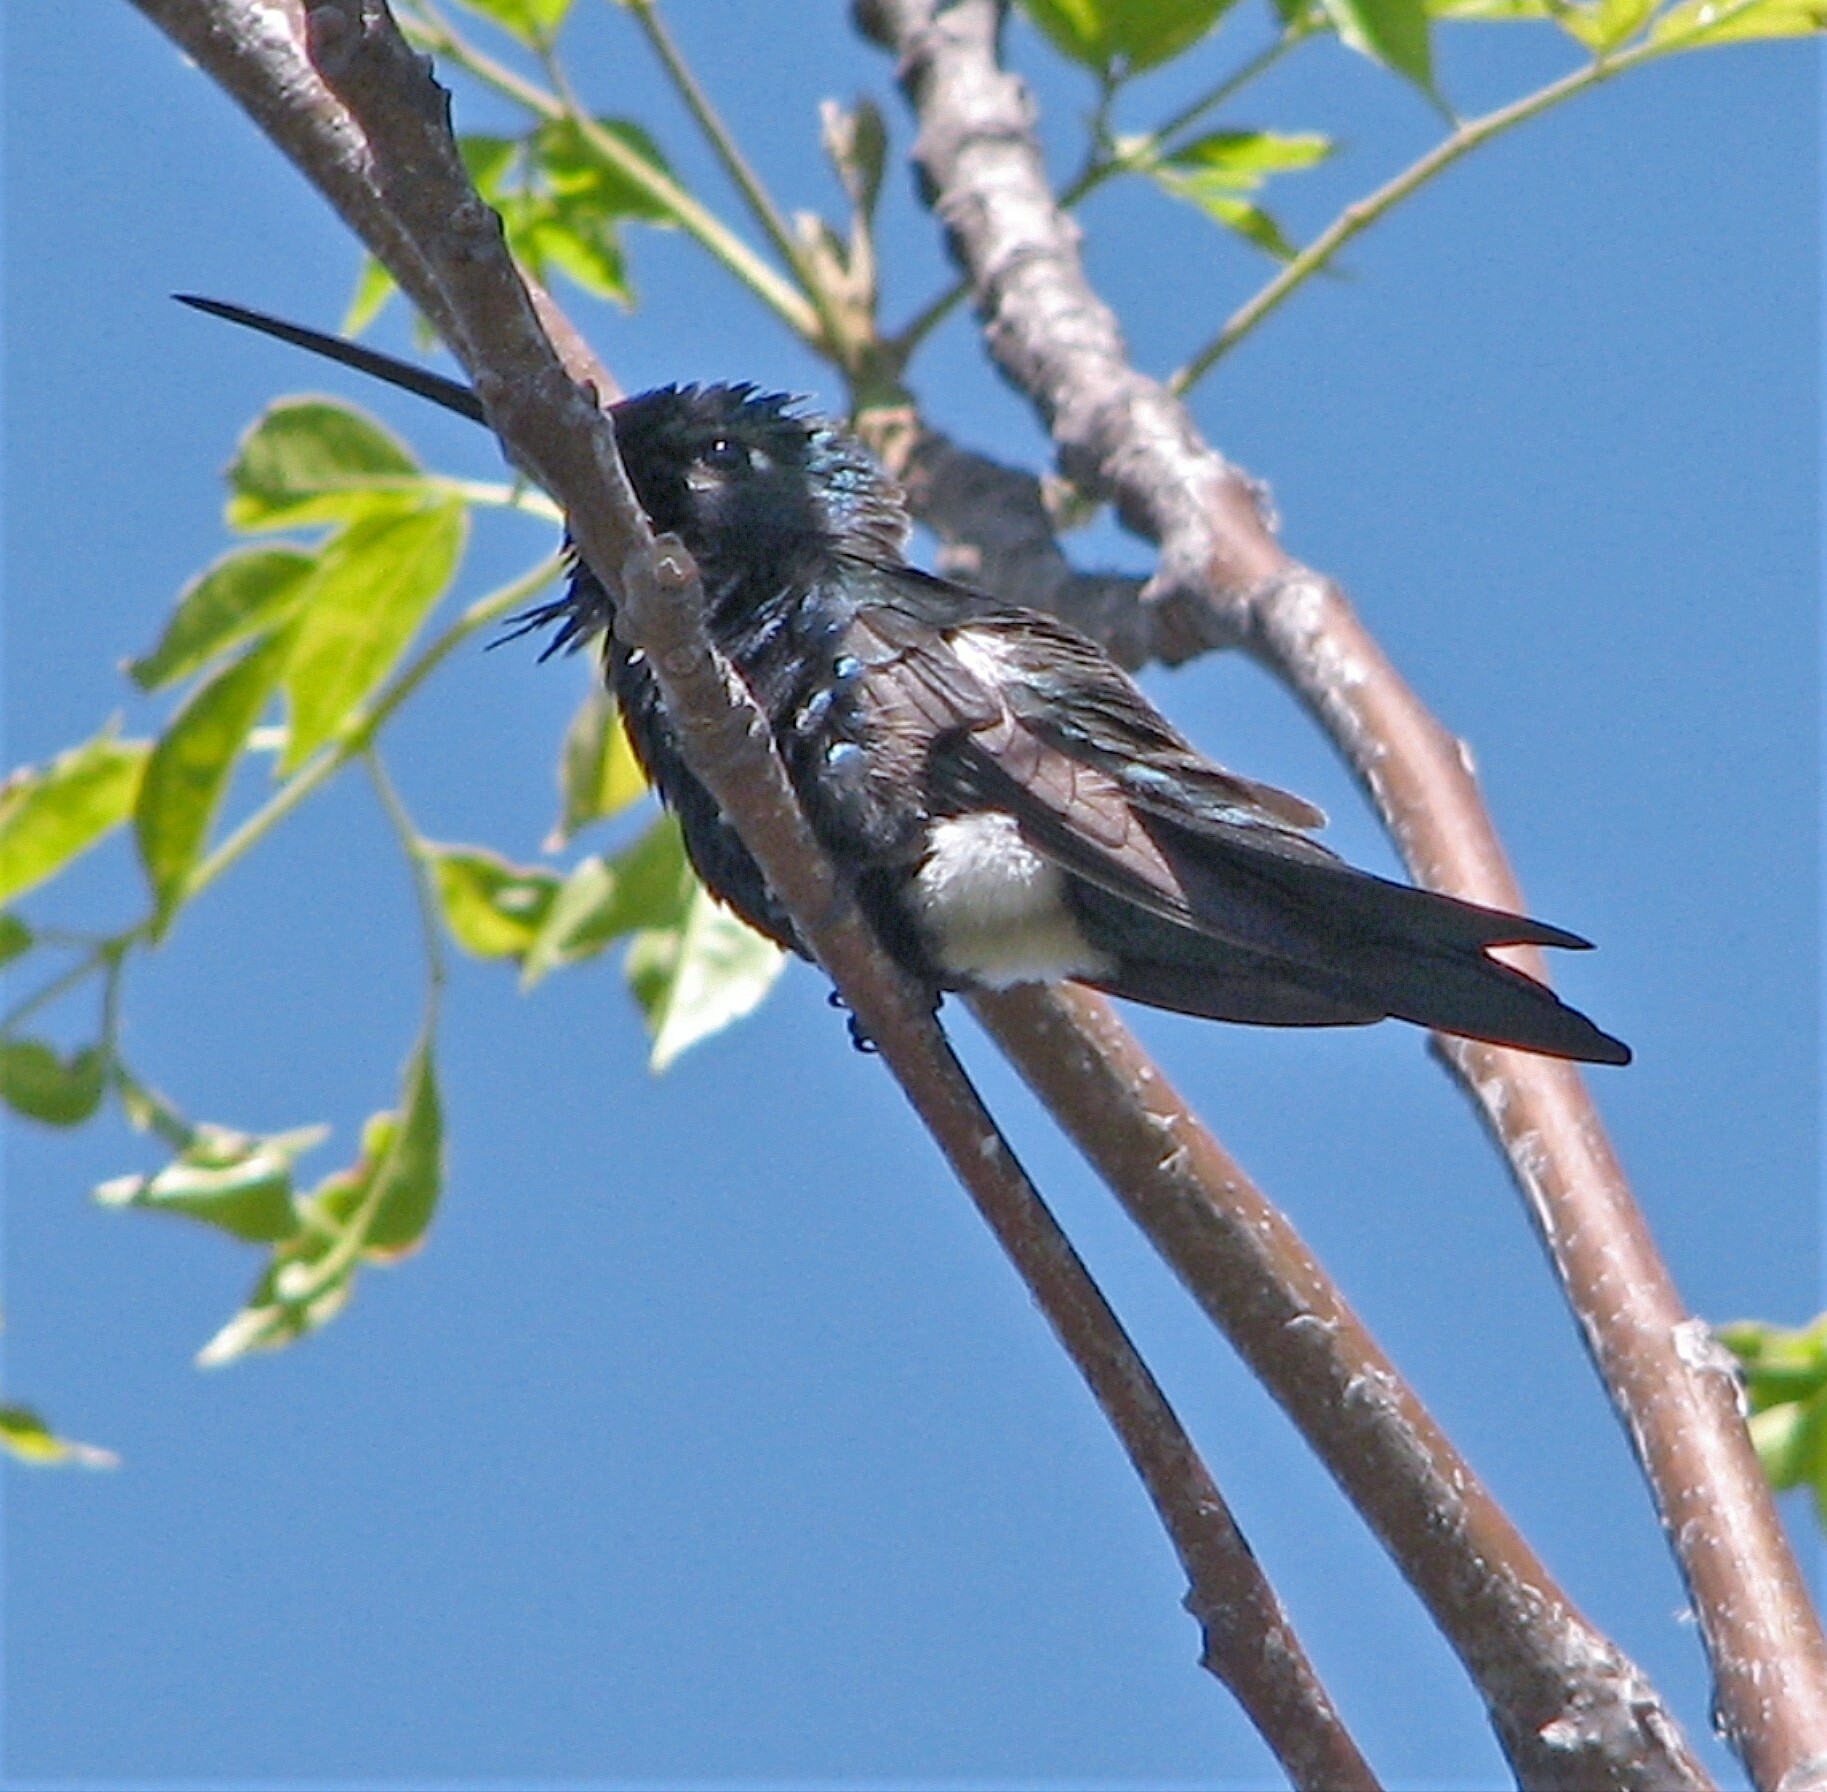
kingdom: Animalia
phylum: Chordata
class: Aves
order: Apodiformes
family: Trochilidae
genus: Heliomaster
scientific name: Heliomaster furcifer
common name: Blue-tufted starthroat
